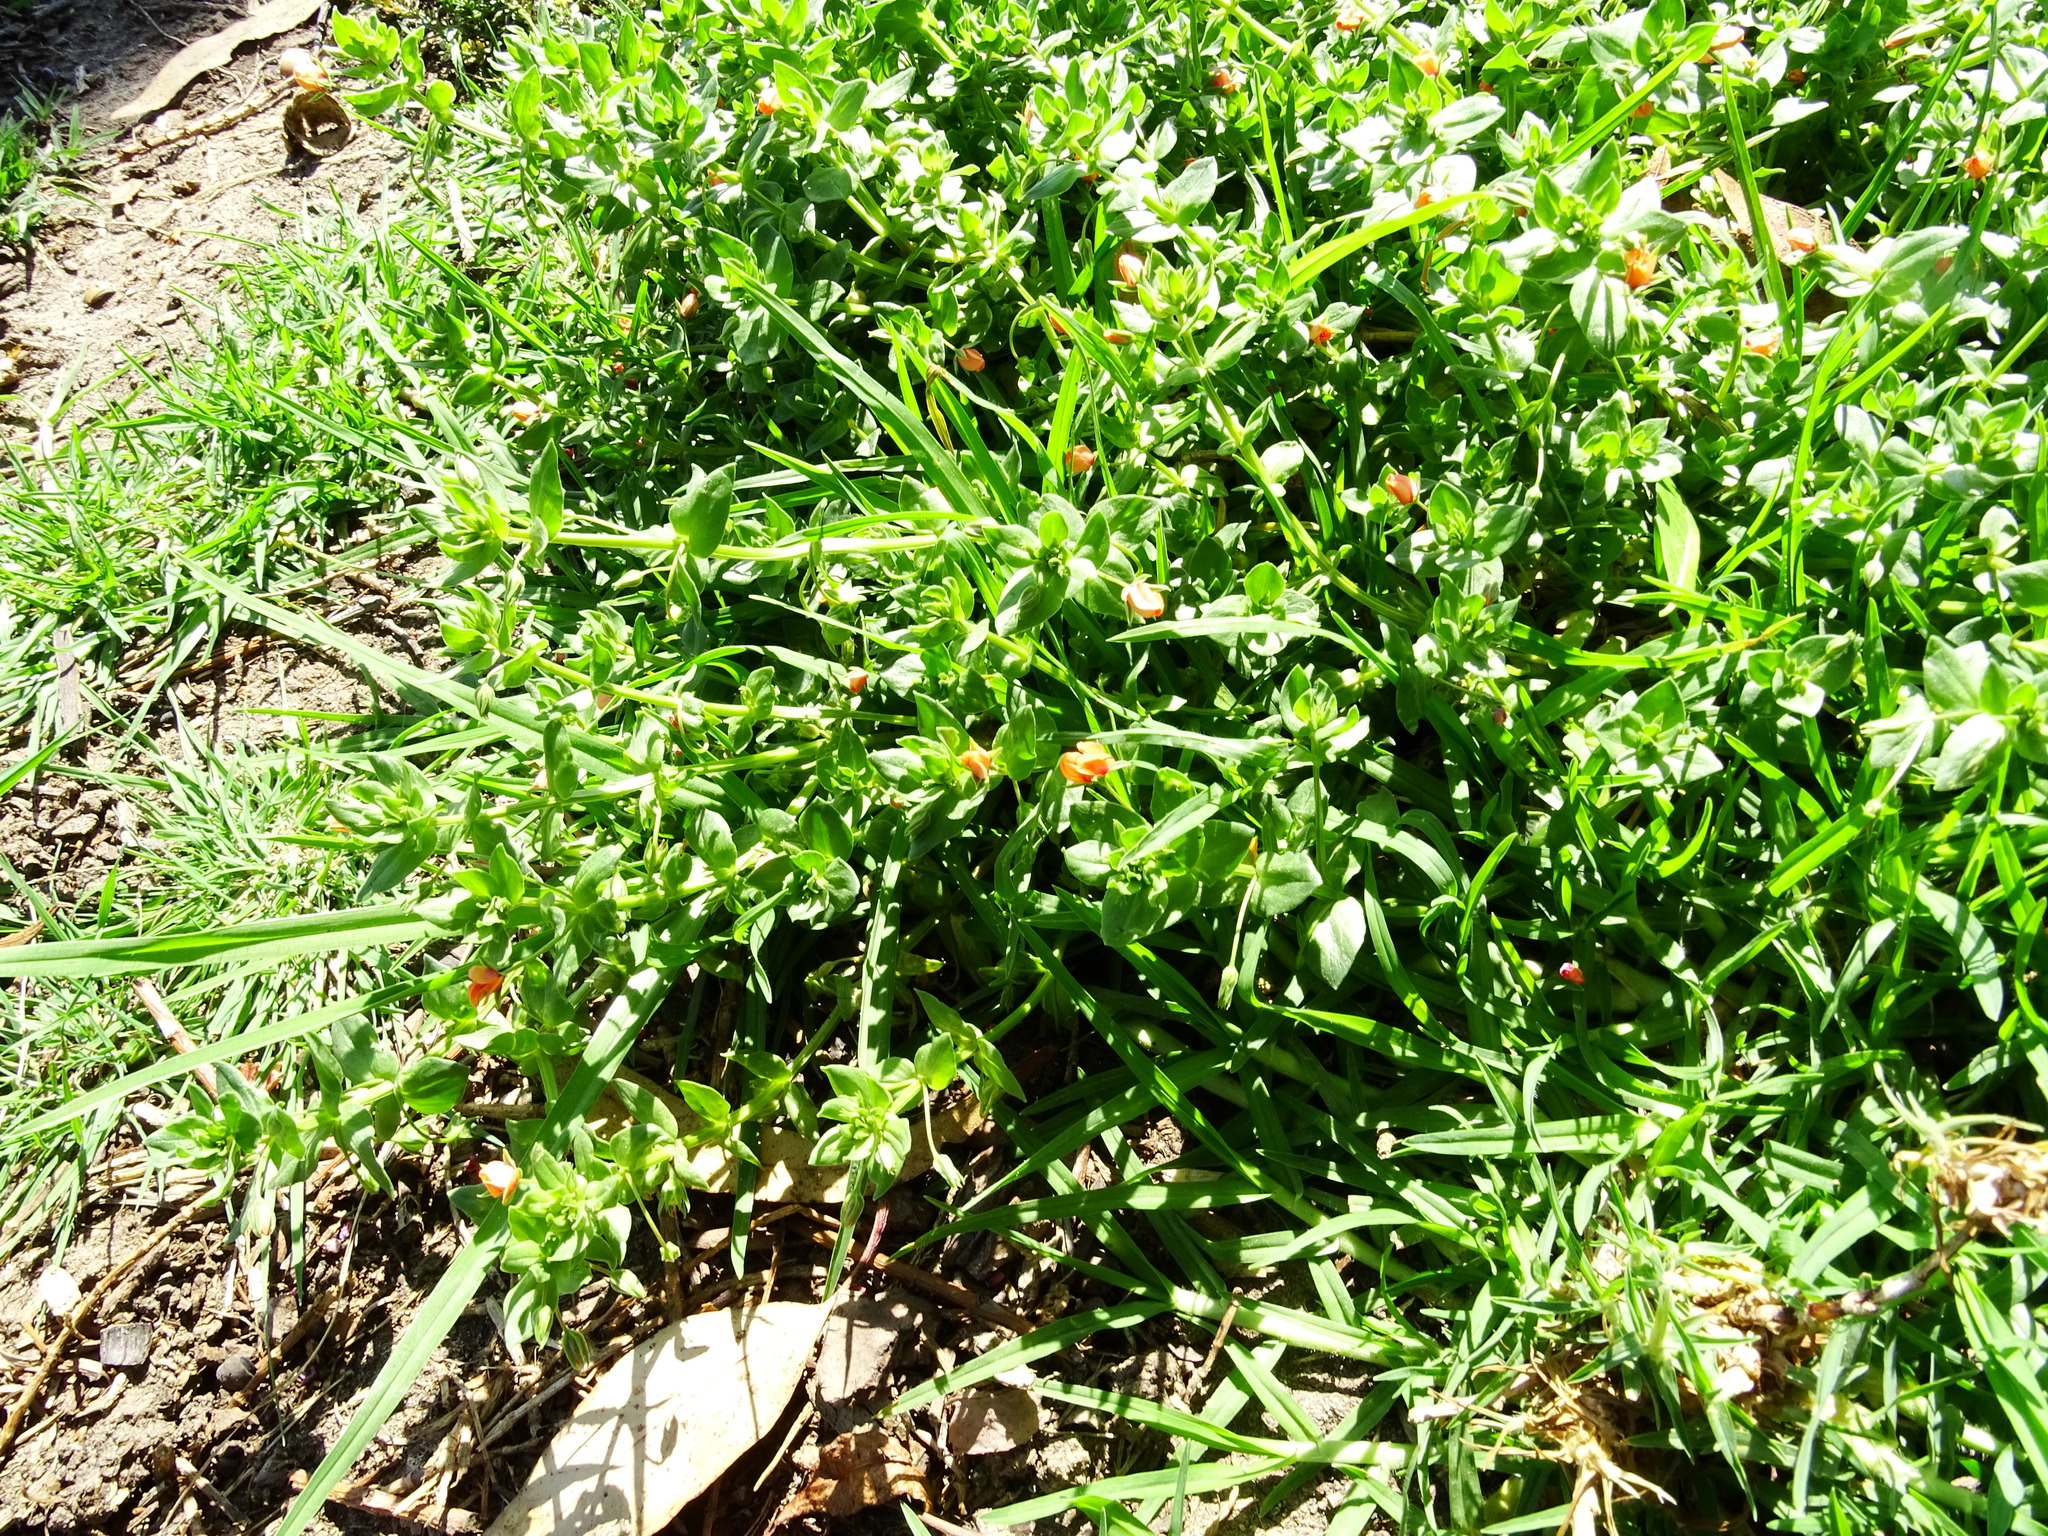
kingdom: Plantae
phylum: Tracheophyta
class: Magnoliopsida
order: Ericales
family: Primulaceae
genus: Lysimachia
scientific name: Lysimachia arvensis
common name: Scarlet pimpernel
